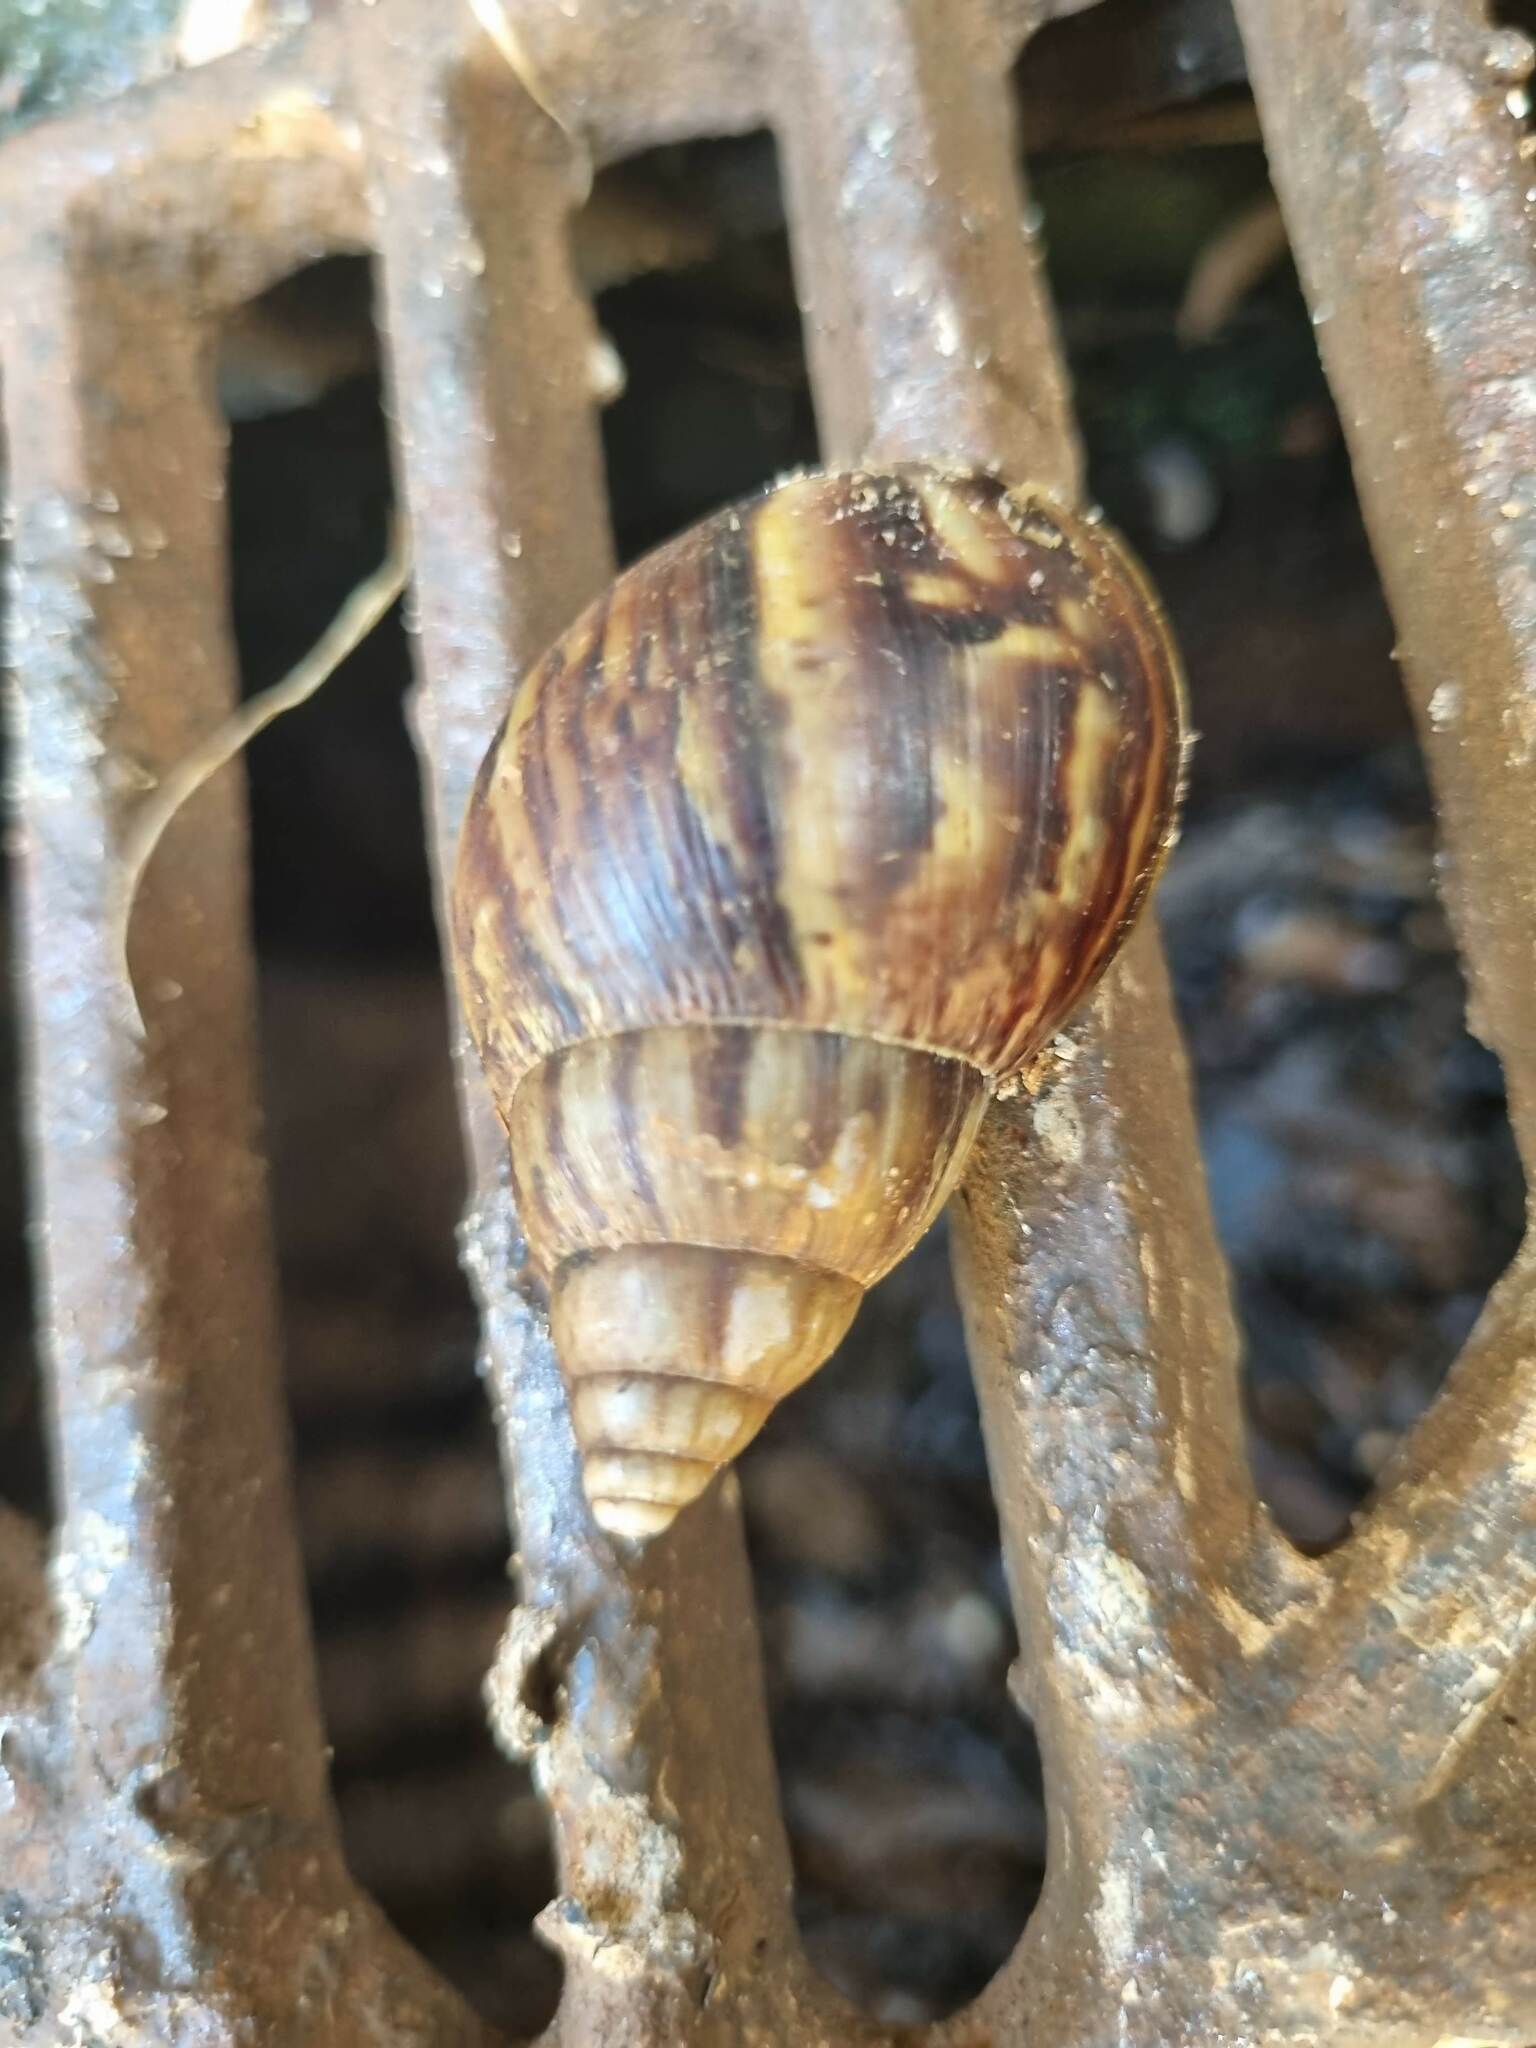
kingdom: Animalia
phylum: Mollusca
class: Gastropoda
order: Stylommatophora
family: Achatinidae
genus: Lissachatina
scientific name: Lissachatina fulica
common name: Giant african snail
